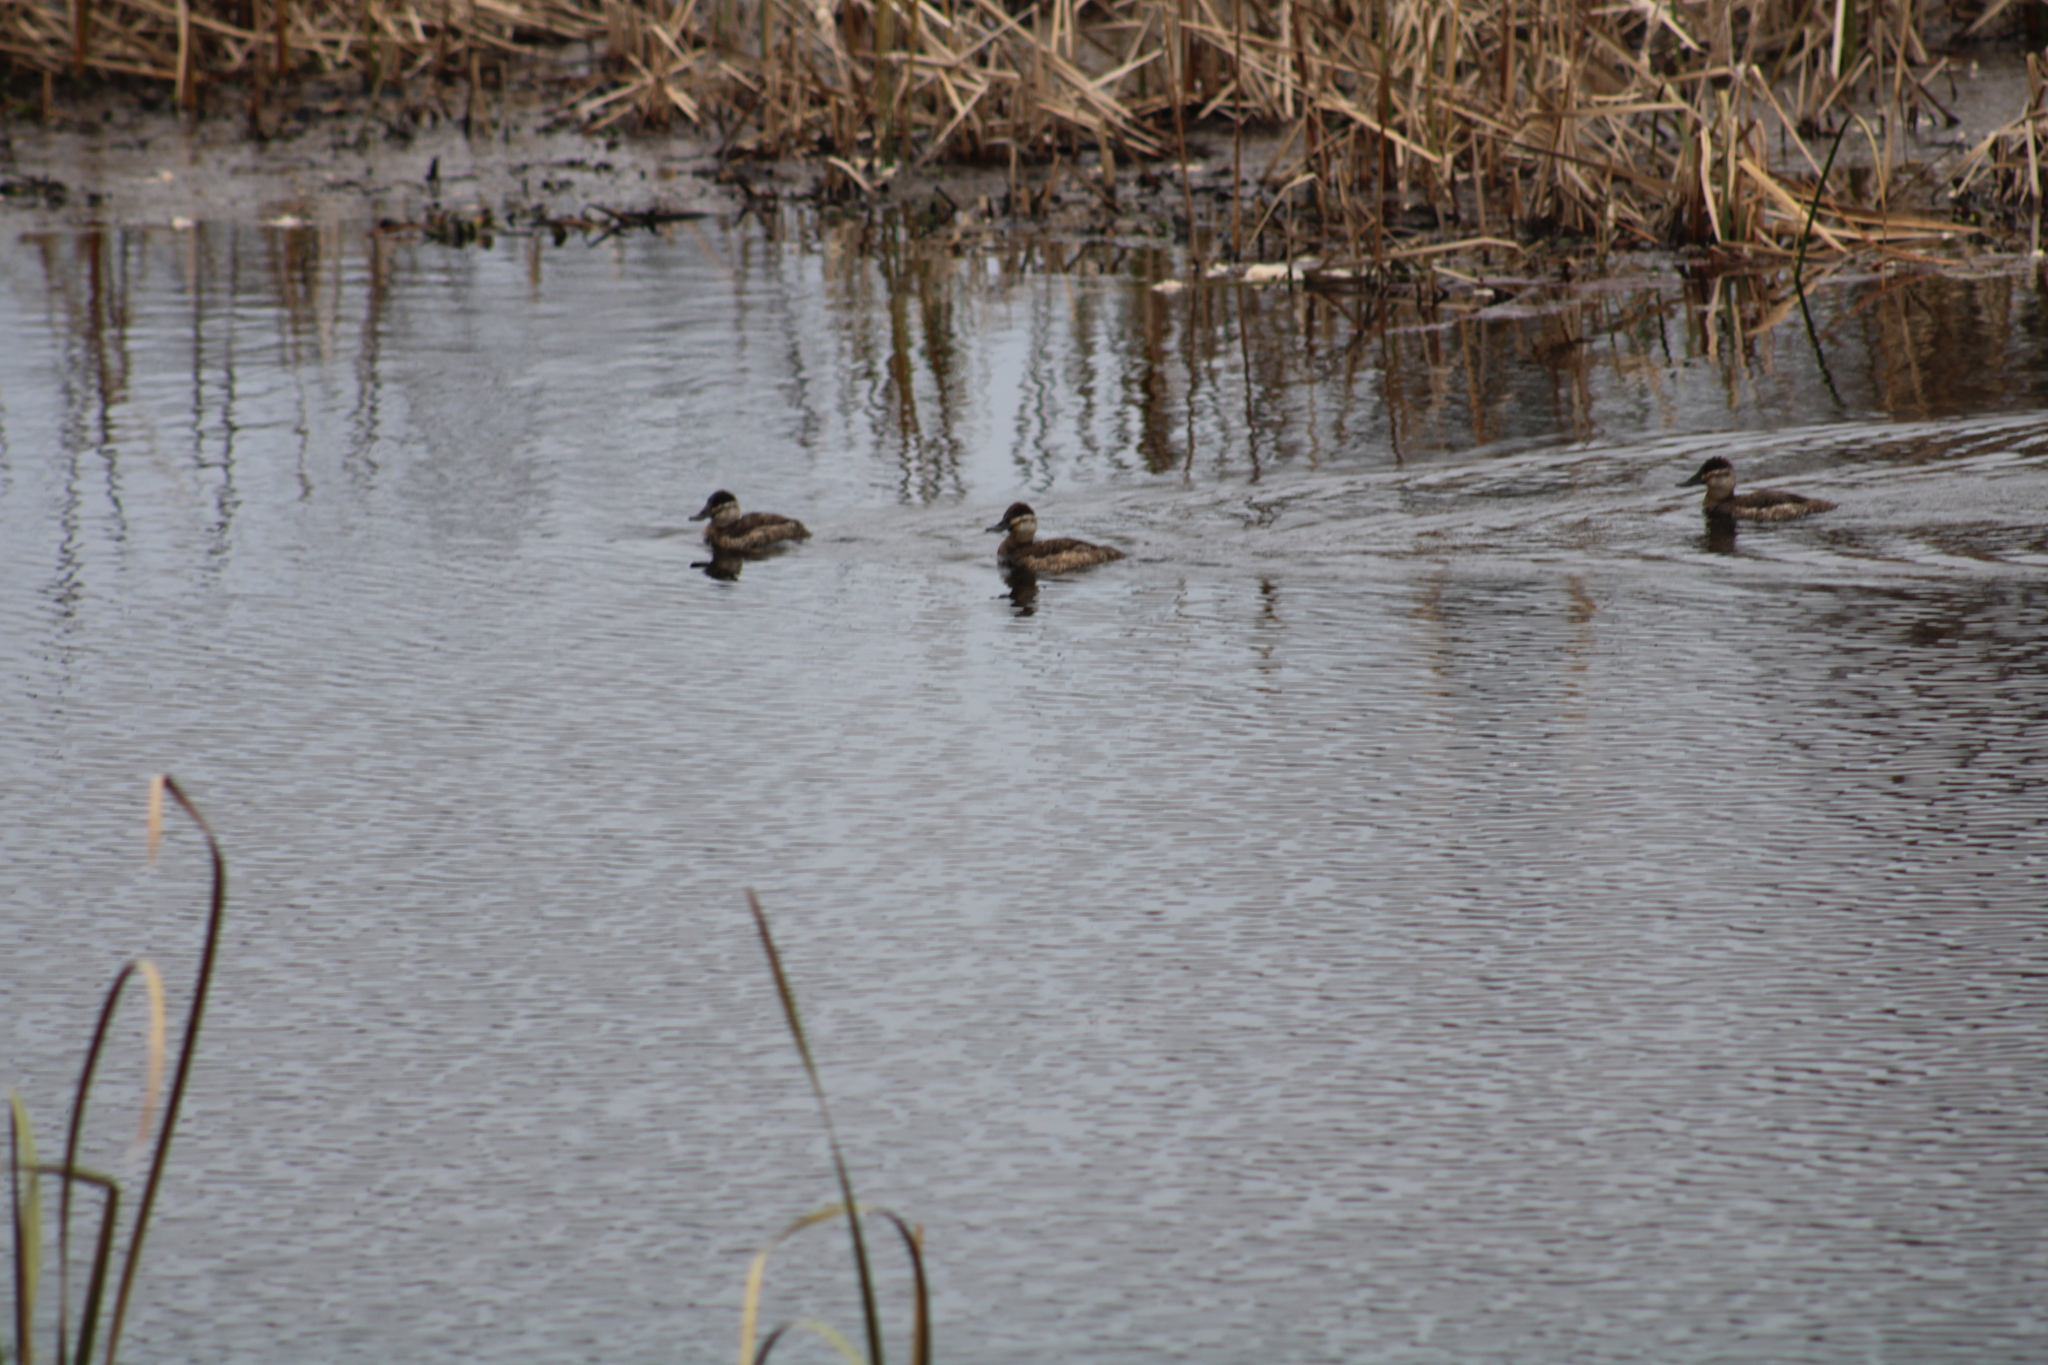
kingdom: Animalia
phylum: Chordata
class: Aves
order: Anseriformes
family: Anatidae
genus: Oxyura
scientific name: Oxyura jamaicensis
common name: Ruddy duck
